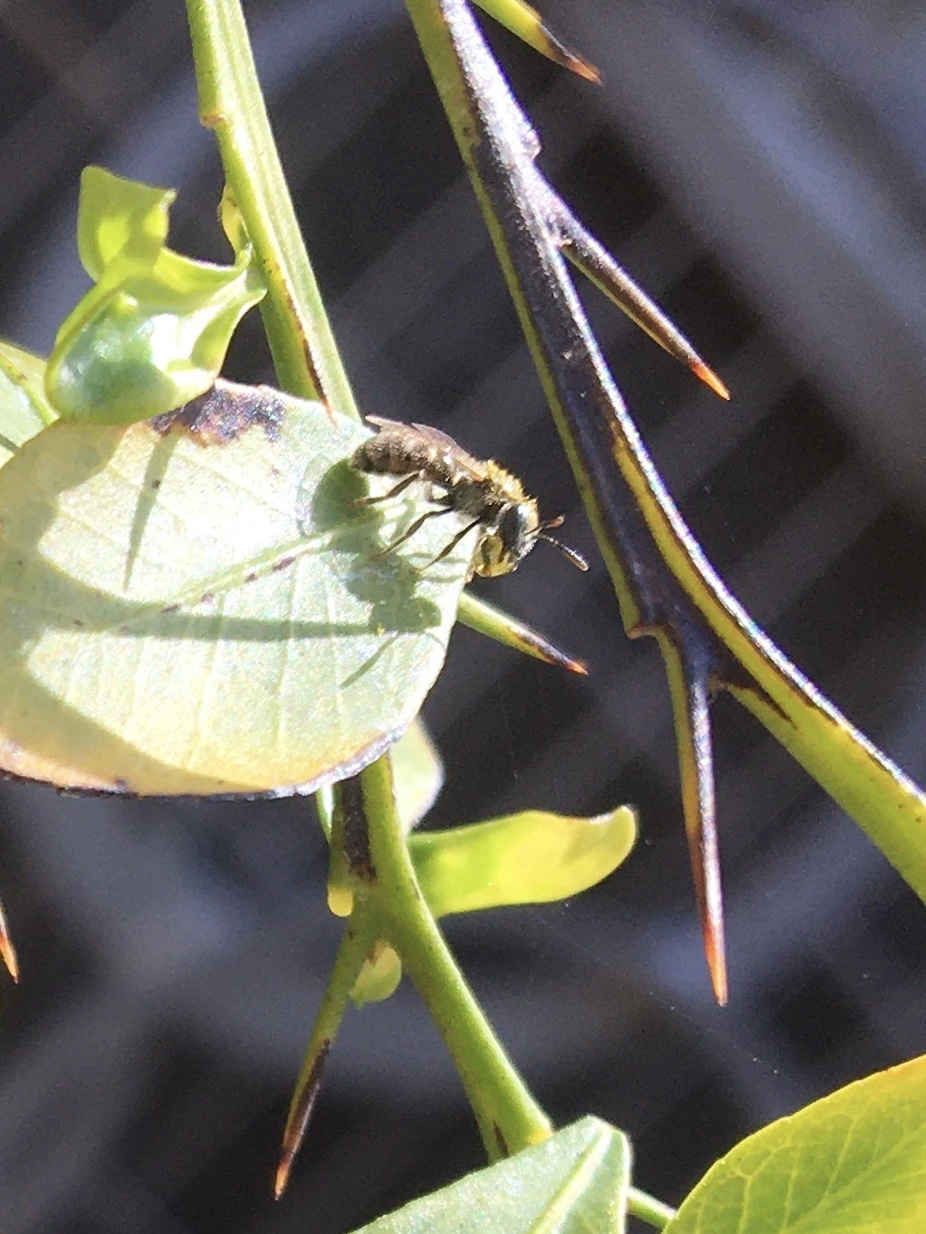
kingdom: Animalia
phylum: Arthropoda
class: Insecta
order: Hymenoptera
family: Halictidae
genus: Dialictus
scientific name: Dialictus
